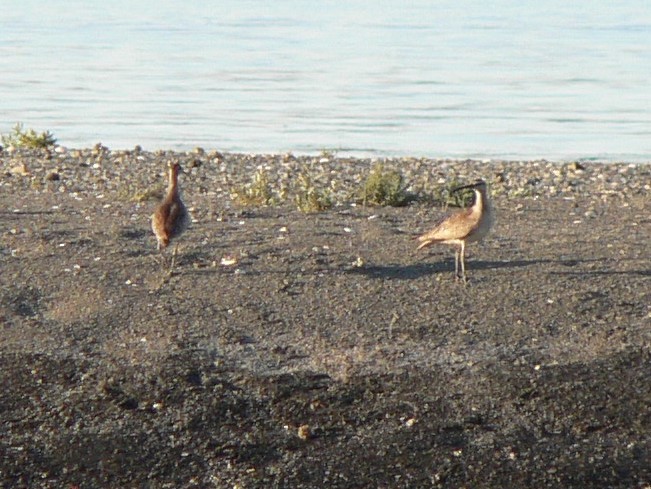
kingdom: Animalia
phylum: Chordata
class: Aves
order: Charadriiformes
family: Scolopacidae
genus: Numenius
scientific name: Numenius phaeopus
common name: Whimbrel
